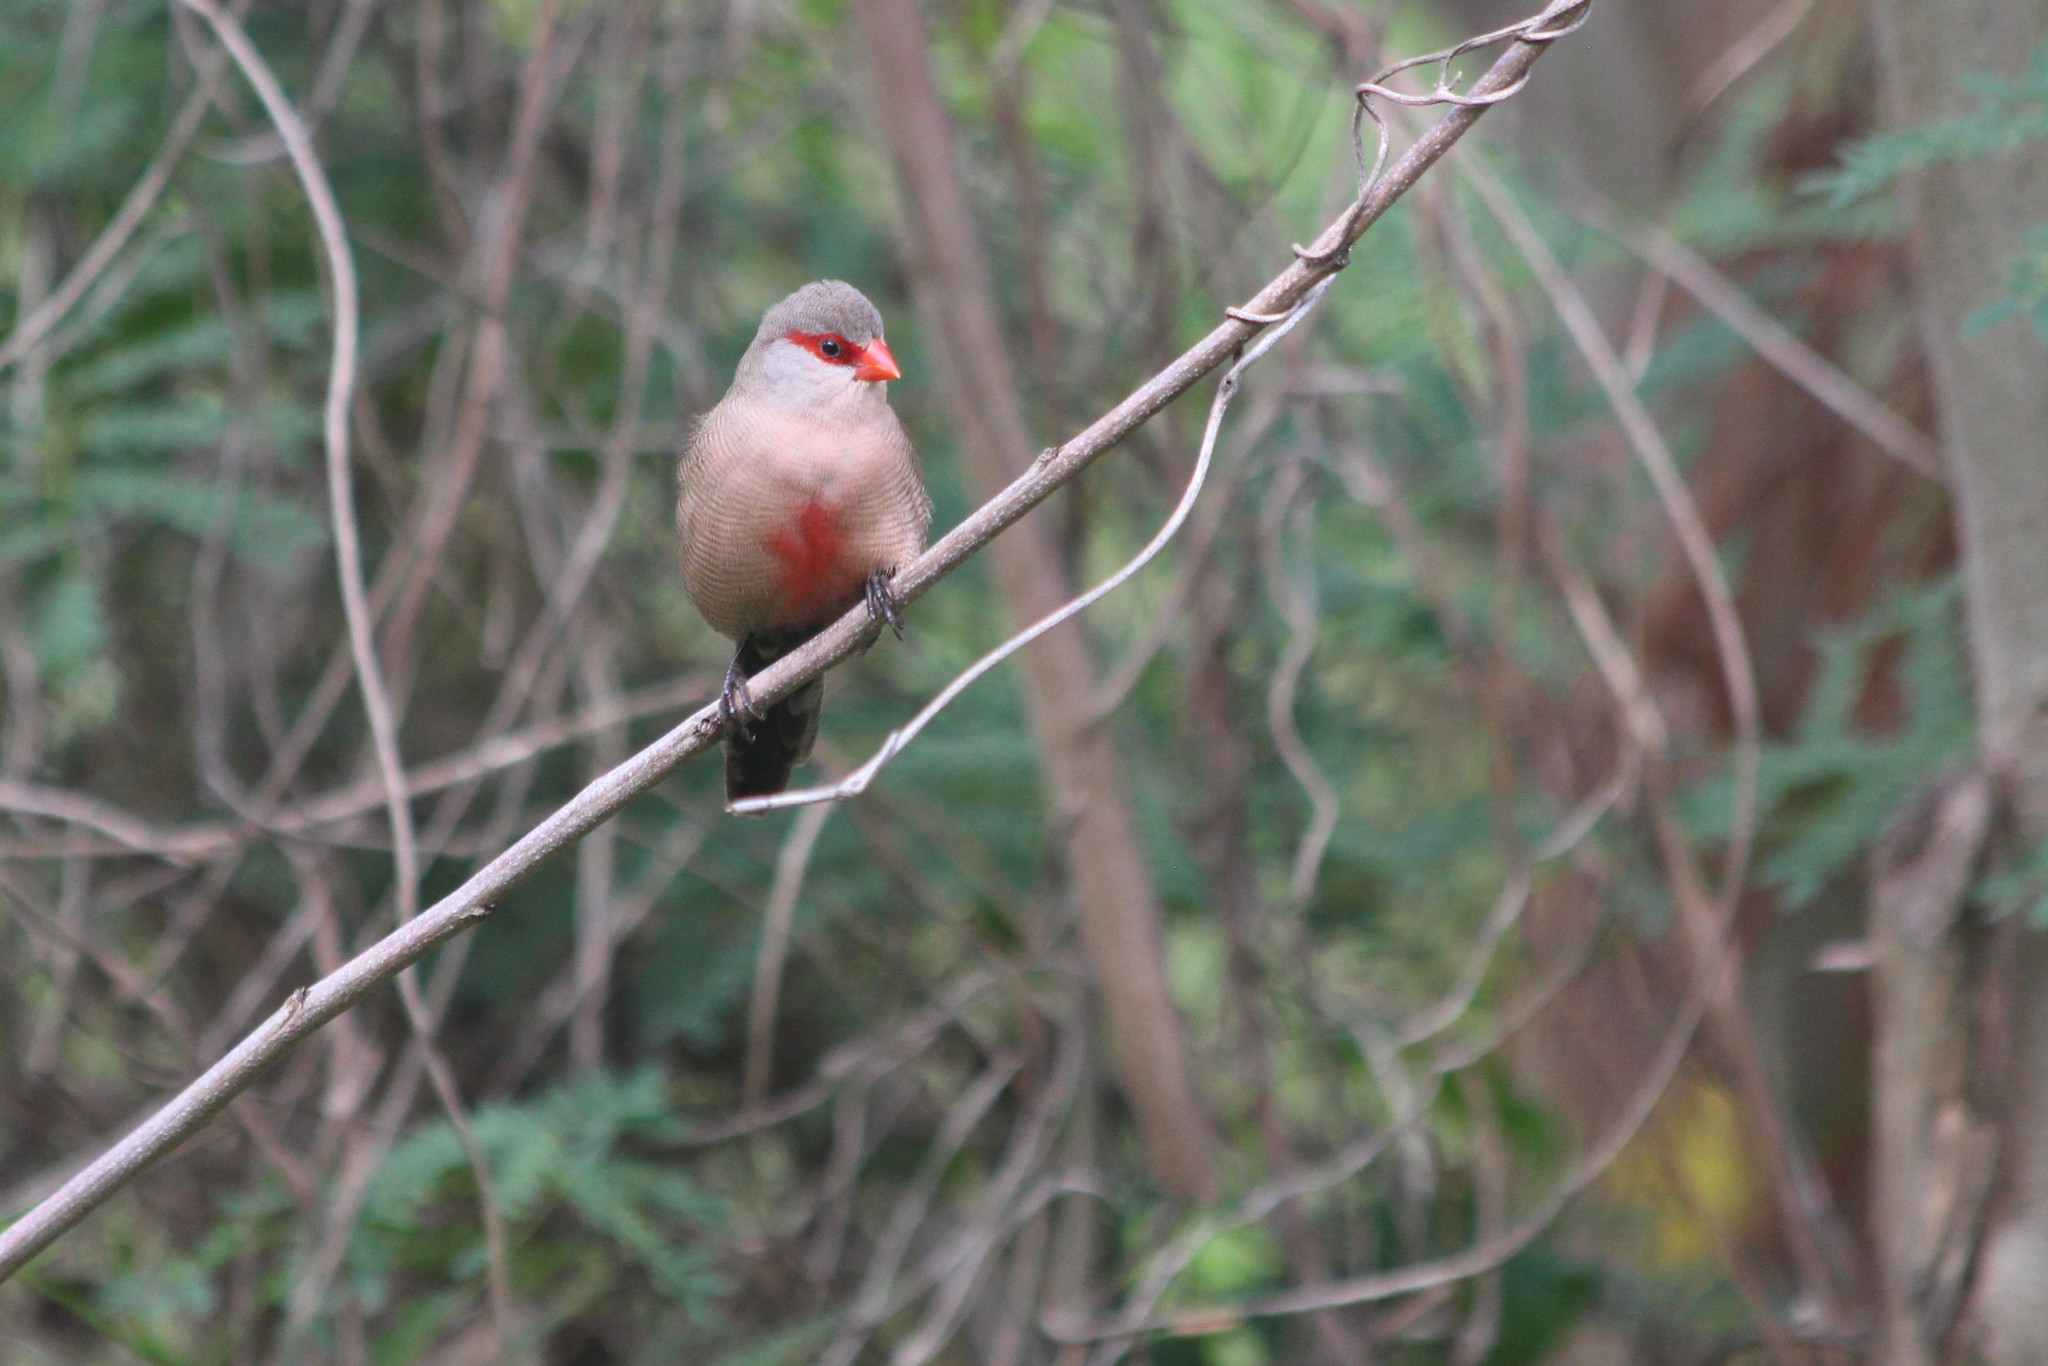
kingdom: Animalia
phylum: Chordata
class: Aves
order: Passeriformes
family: Estrildidae
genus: Estrilda
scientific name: Estrilda astrild
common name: Common waxbill
